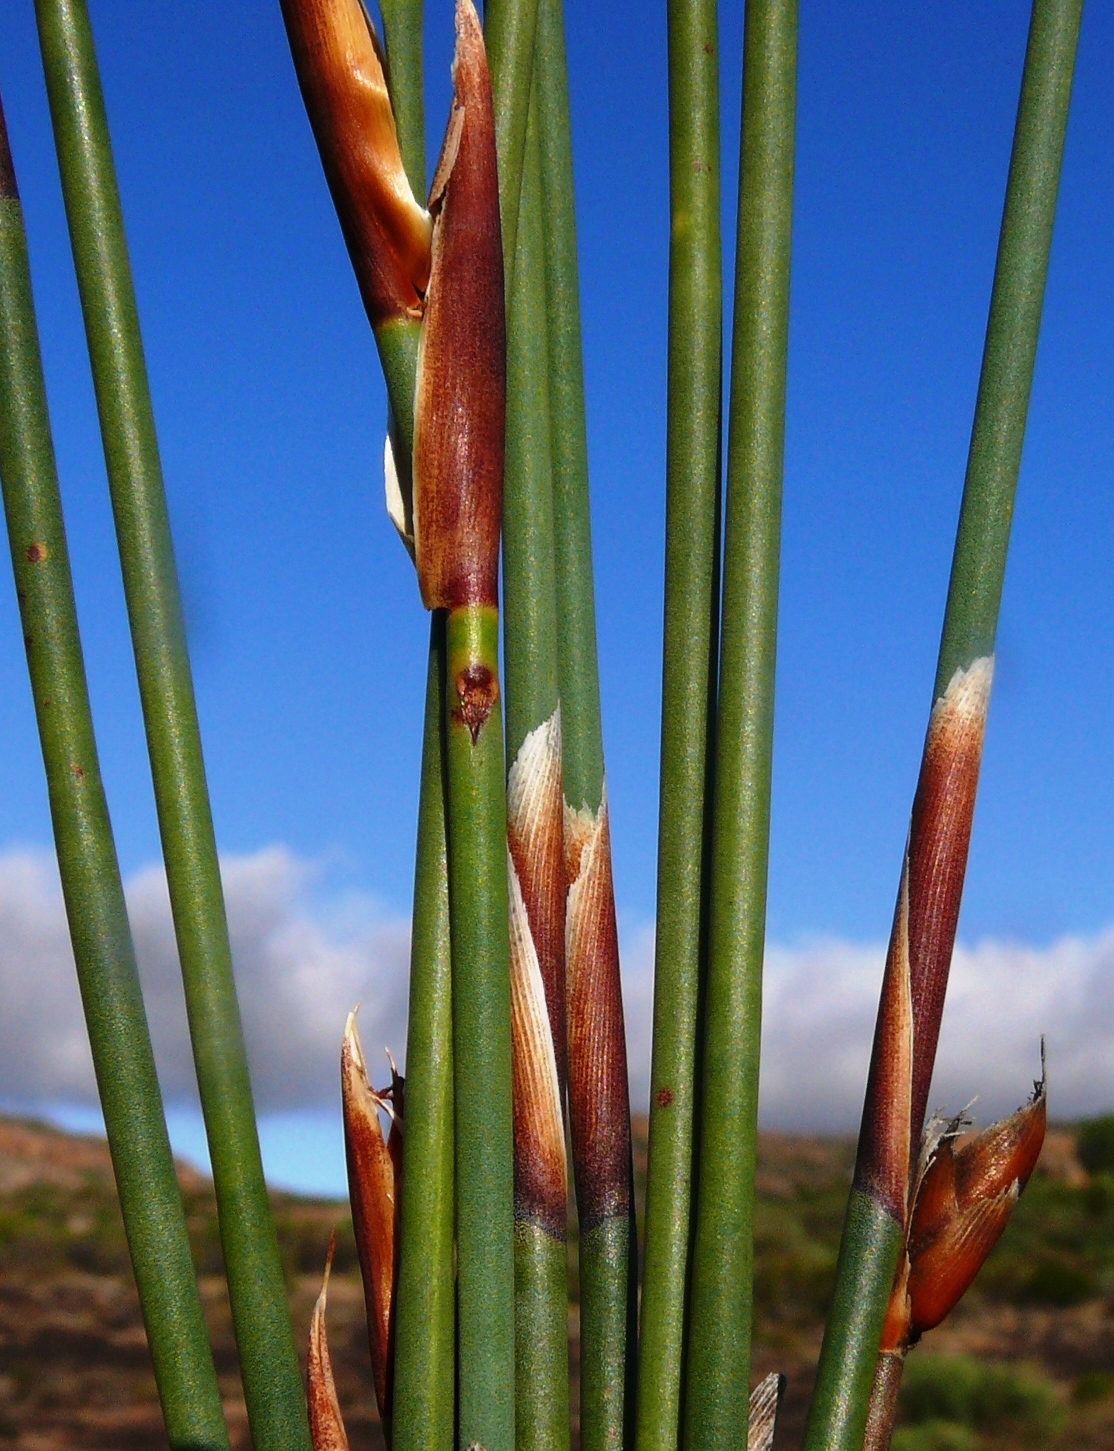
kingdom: Plantae
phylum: Tracheophyta
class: Liliopsida
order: Poales
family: Restionaceae
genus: Cannomois
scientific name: Cannomois parviflora
